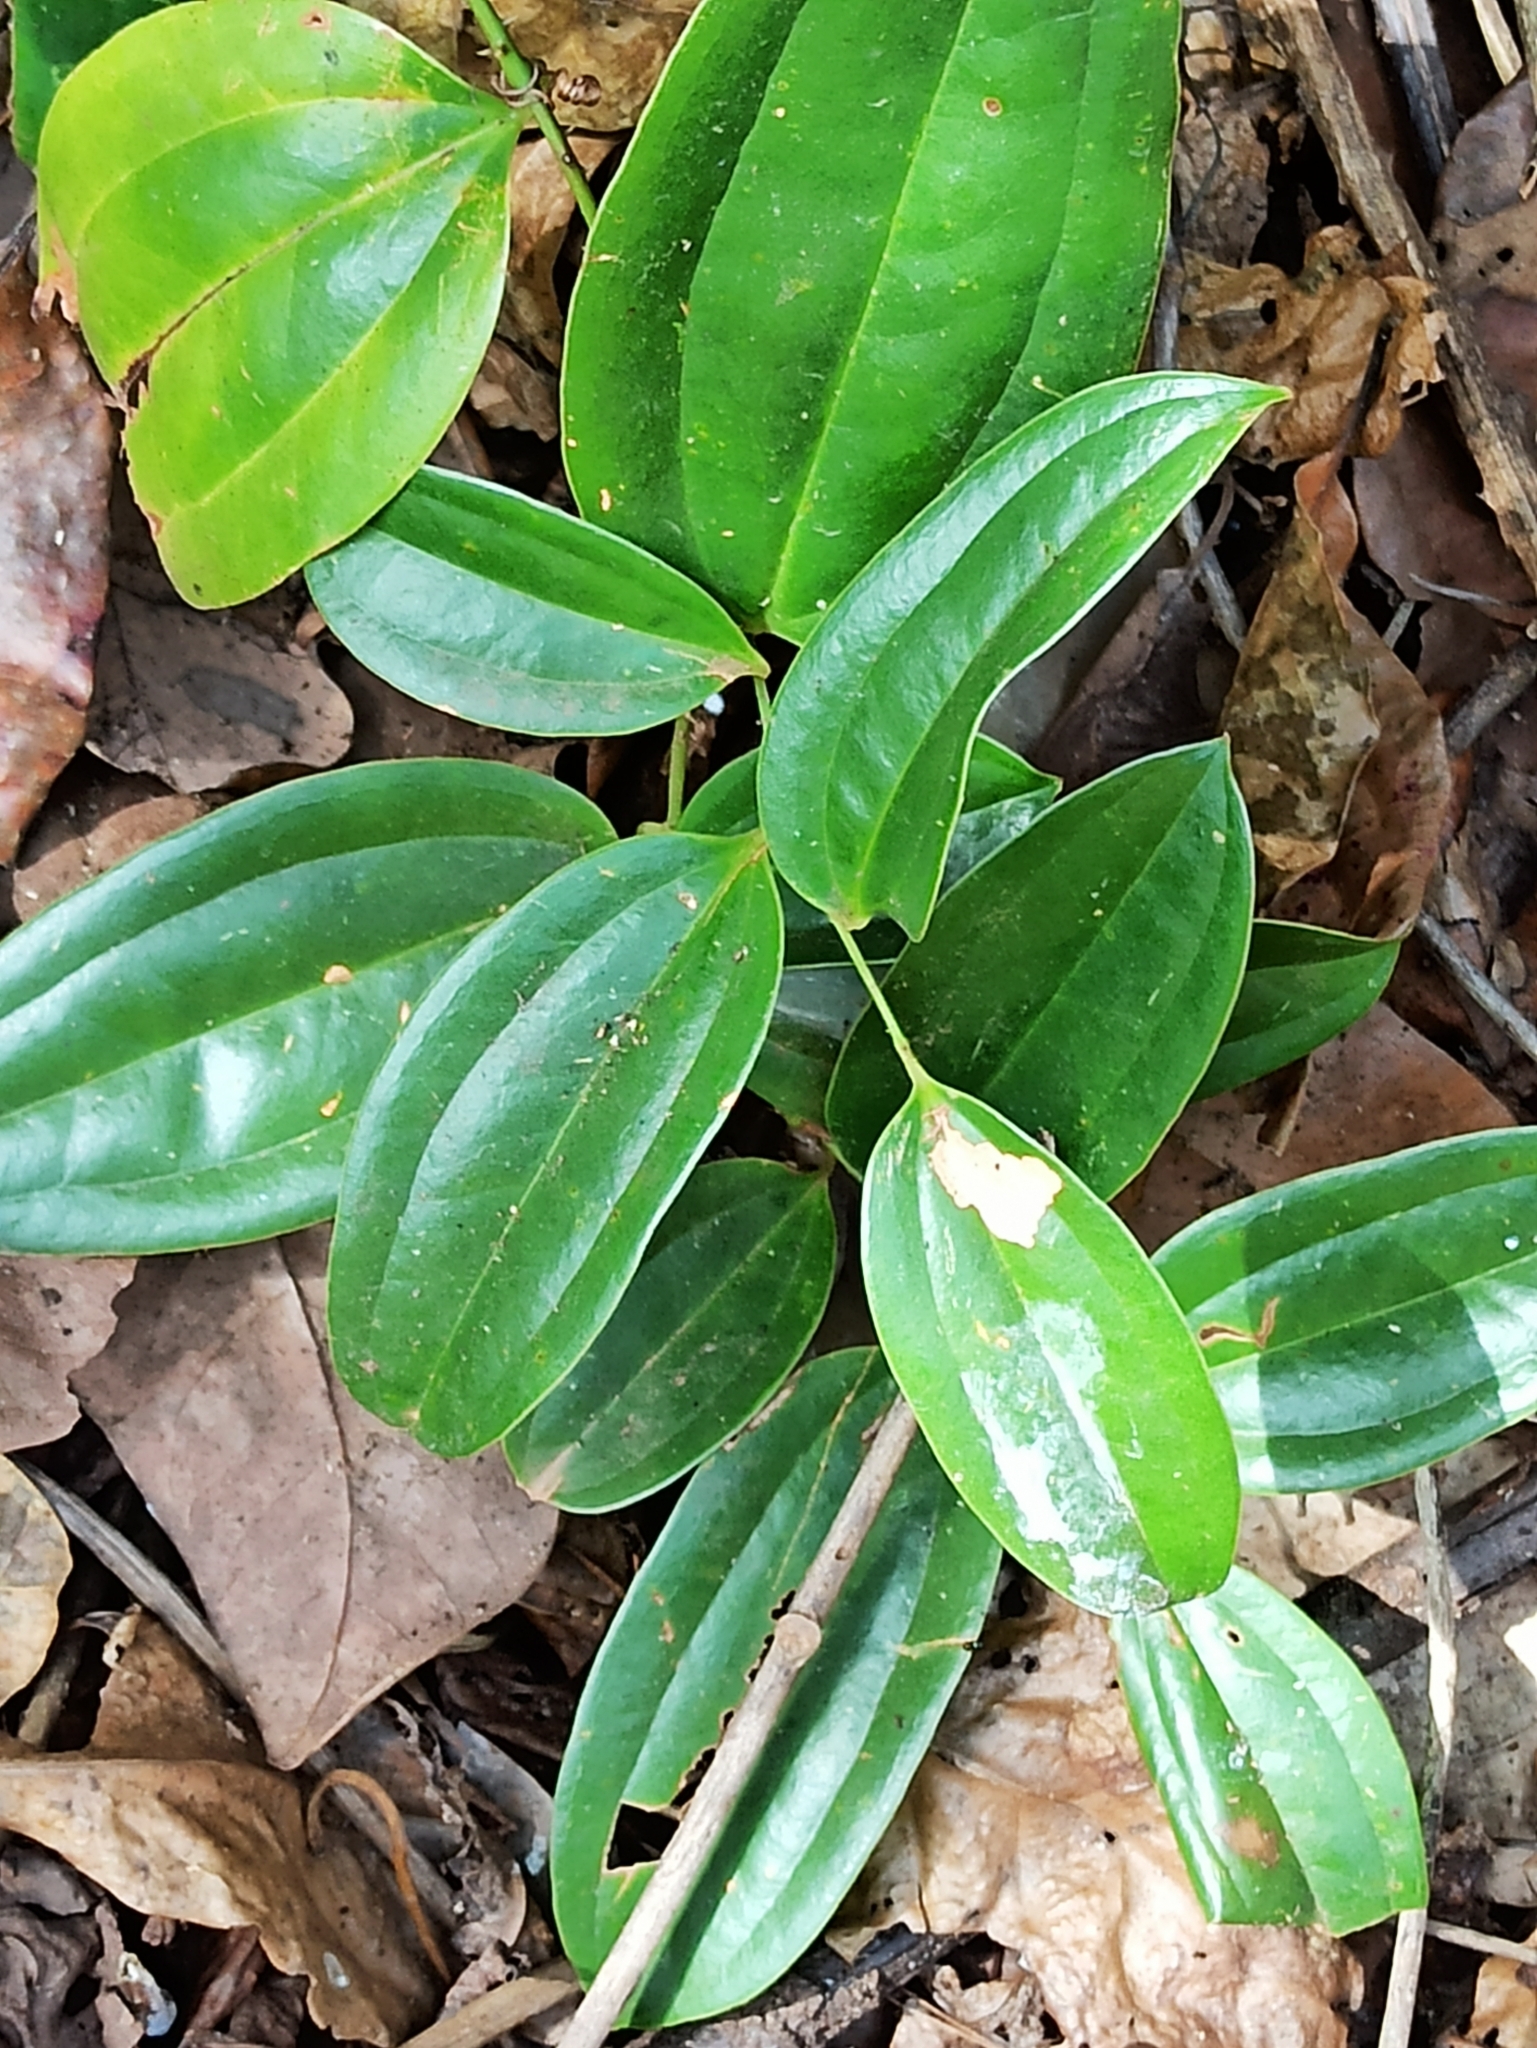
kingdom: Plantae
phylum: Tracheophyta
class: Liliopsida
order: Liliales
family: Smilacaceae
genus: Smilax
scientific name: Smilax zeylanica
